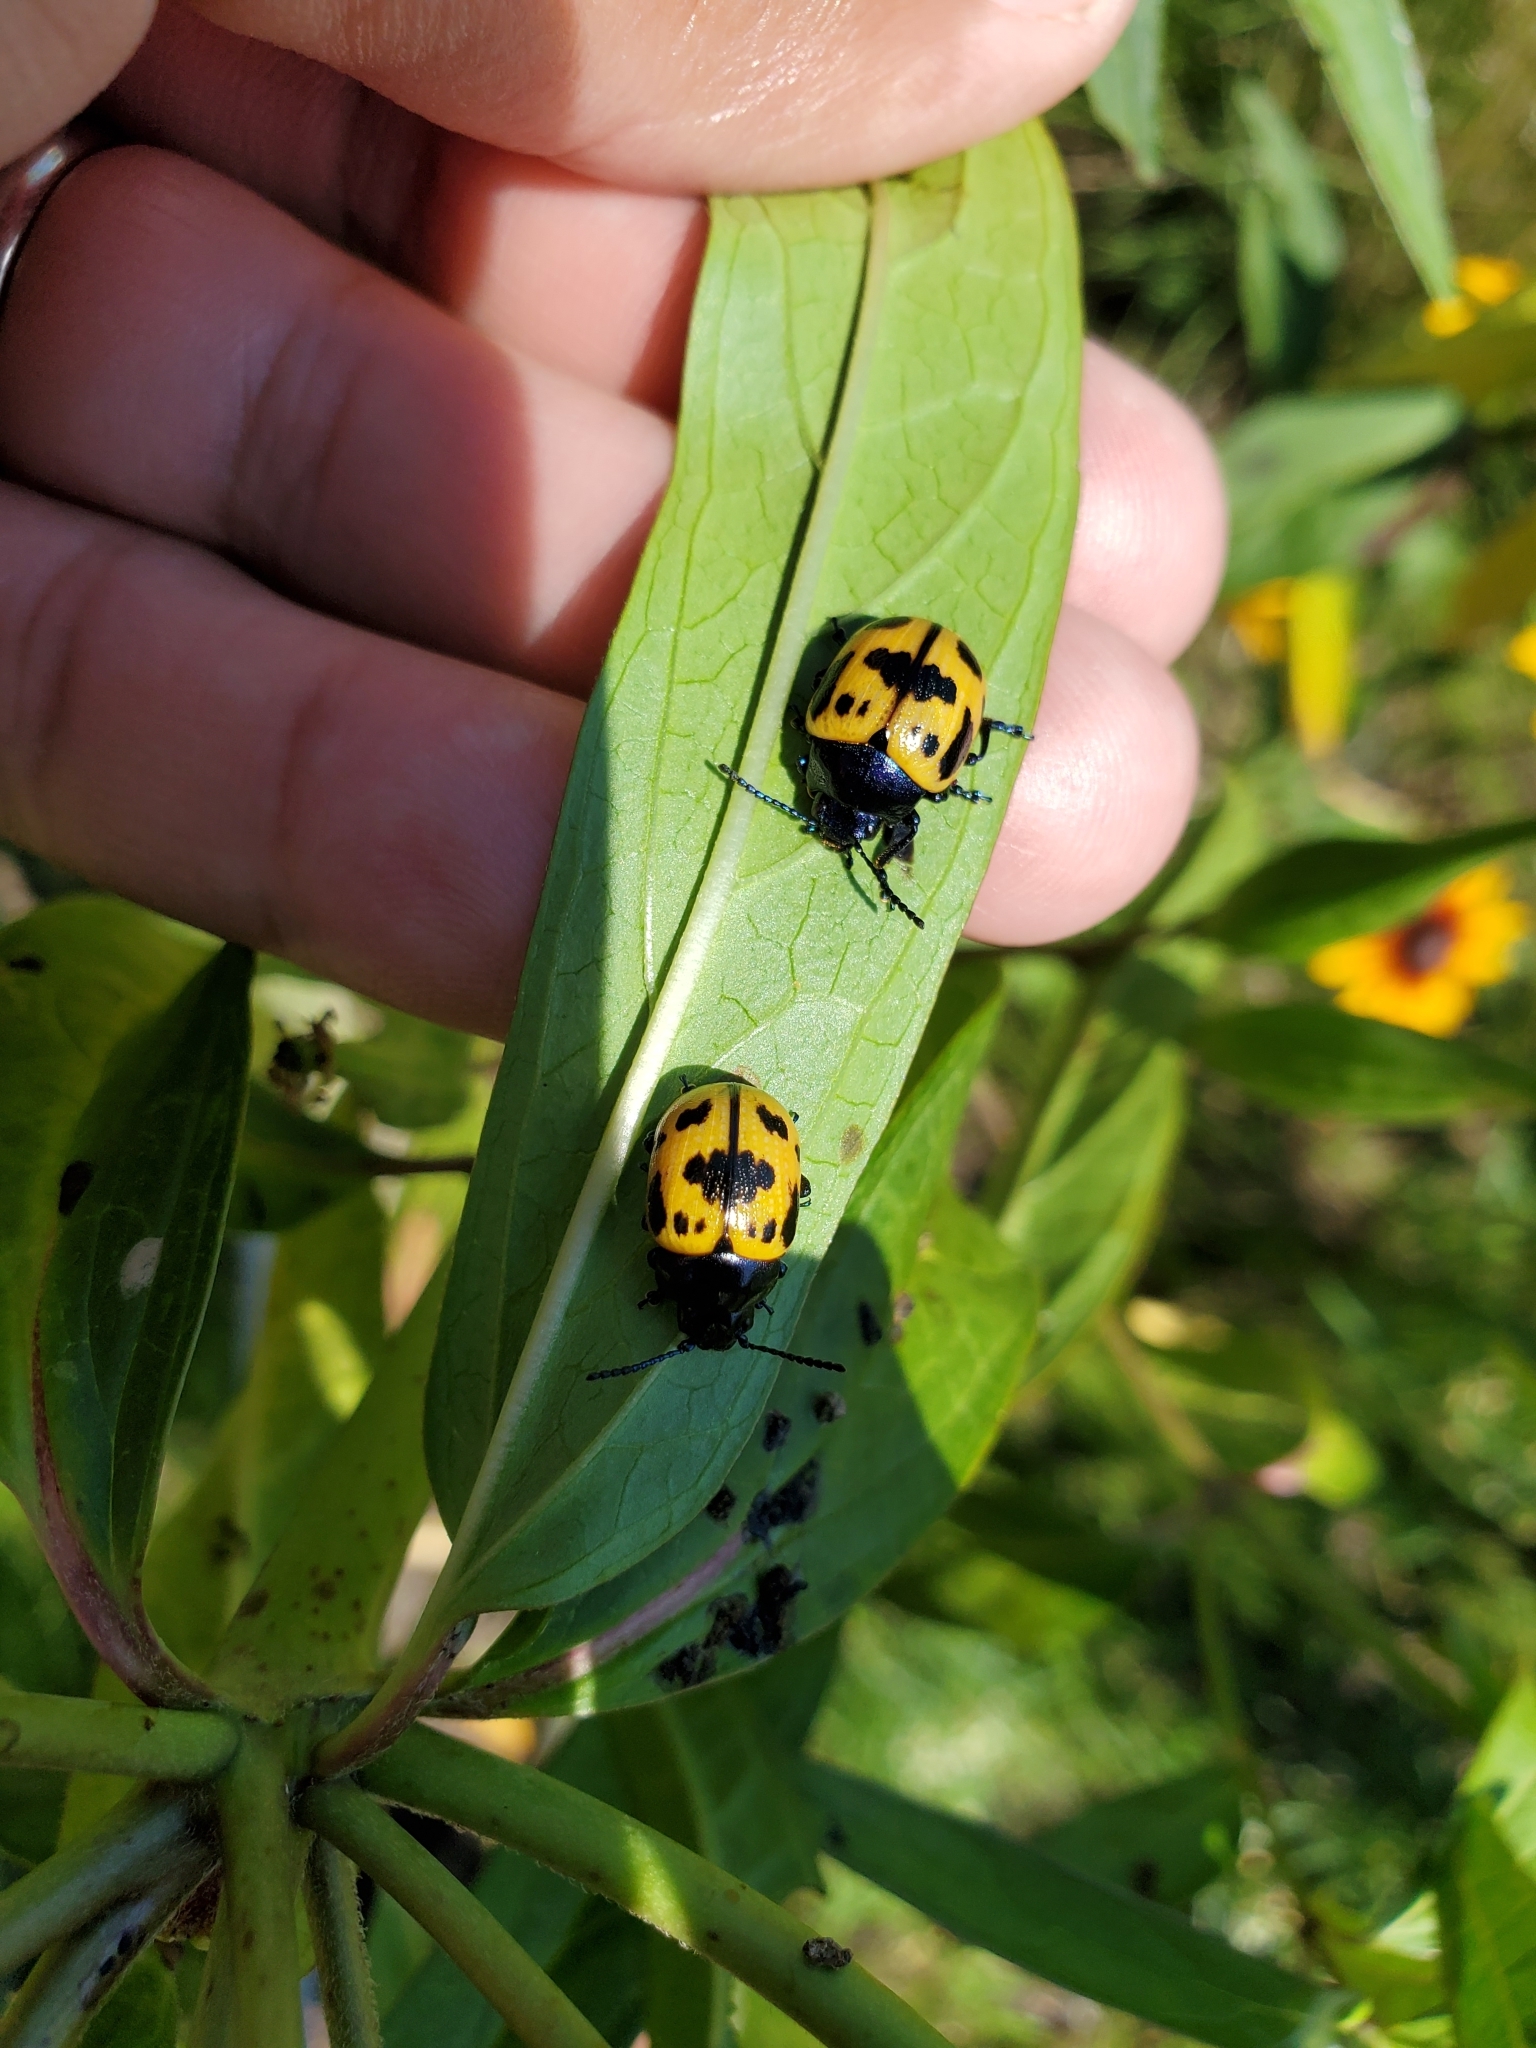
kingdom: Animalia
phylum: Arthropoda
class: Insecta
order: Coleoptera
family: Chrysomelidae
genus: Labidomera
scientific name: Labidomera clivicollis
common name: Swamp milkweed leaf beetle
